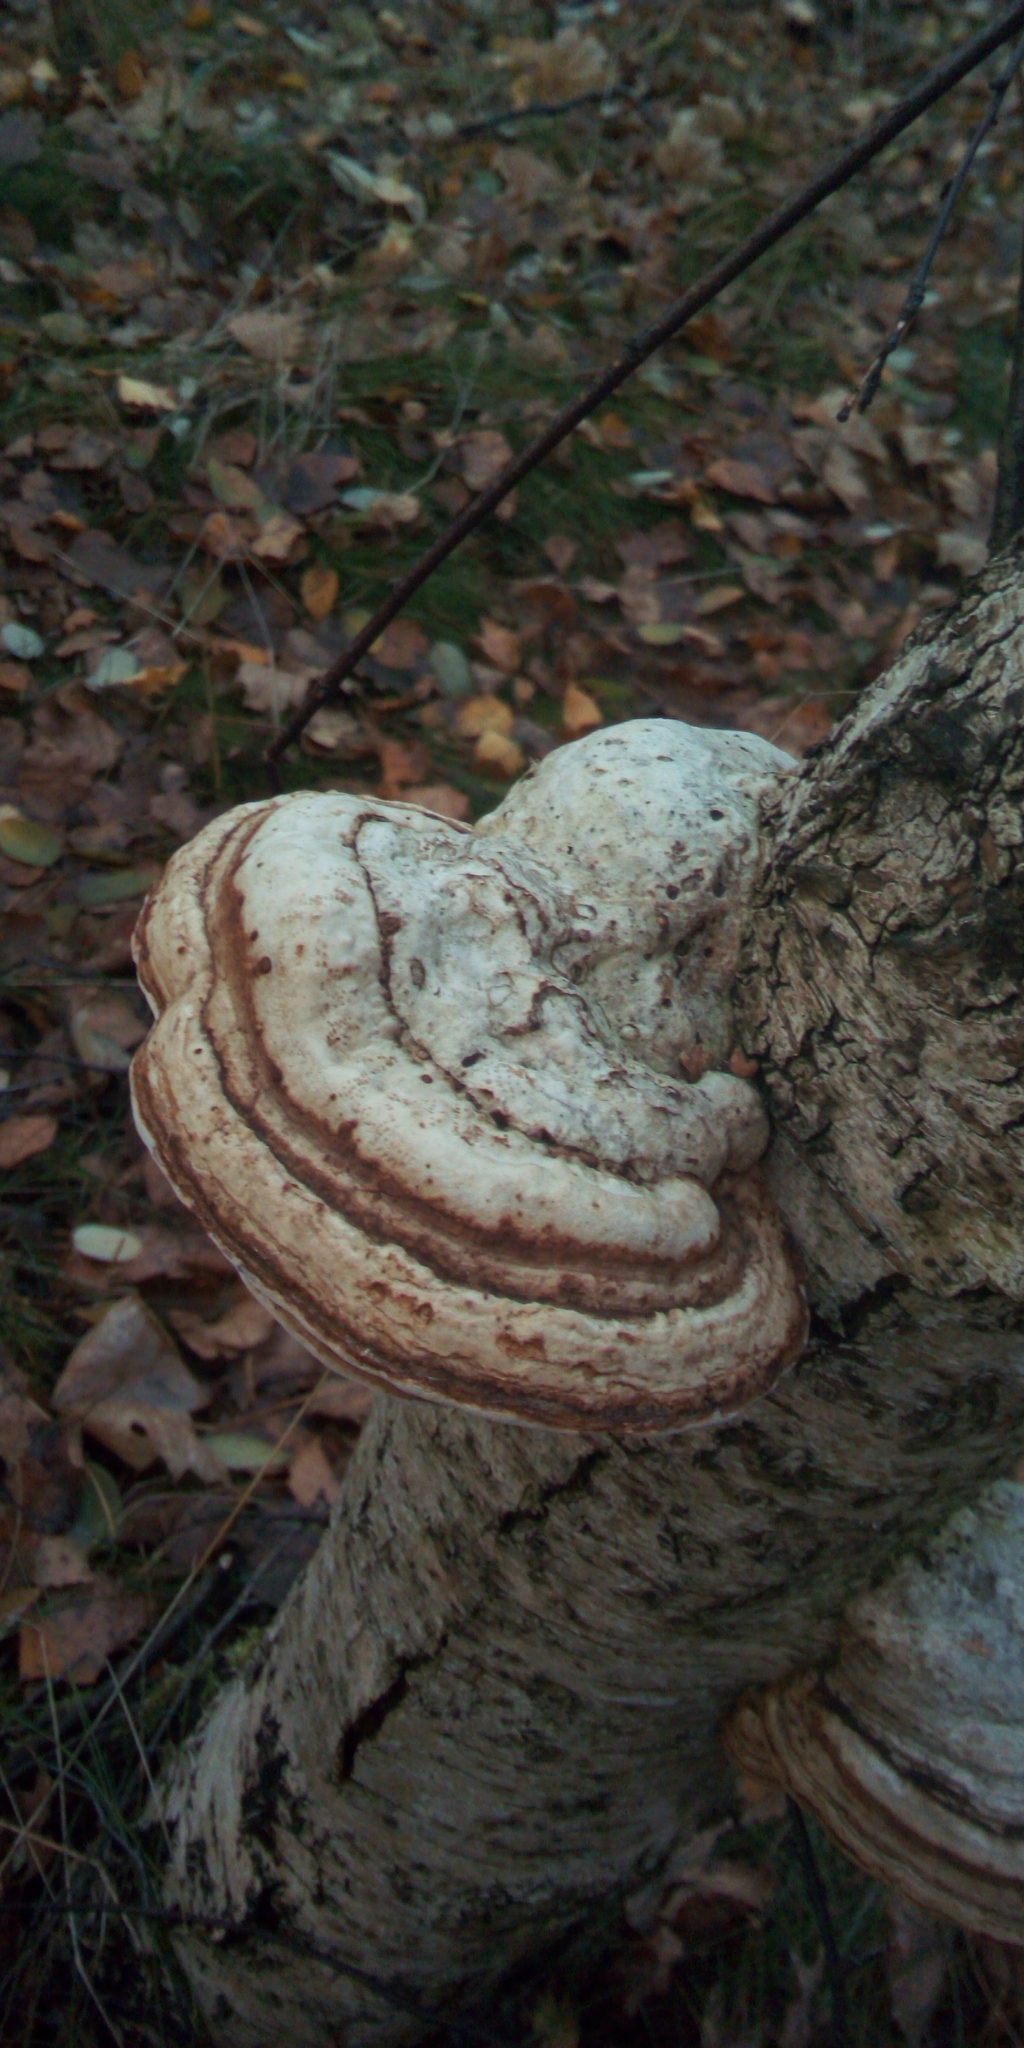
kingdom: Fungi
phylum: Basidiomycota
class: Agaricomycetes
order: Polyporales
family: Polyporaceae
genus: Fomes
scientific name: Fomes fomentarius
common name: Hoof fungus
